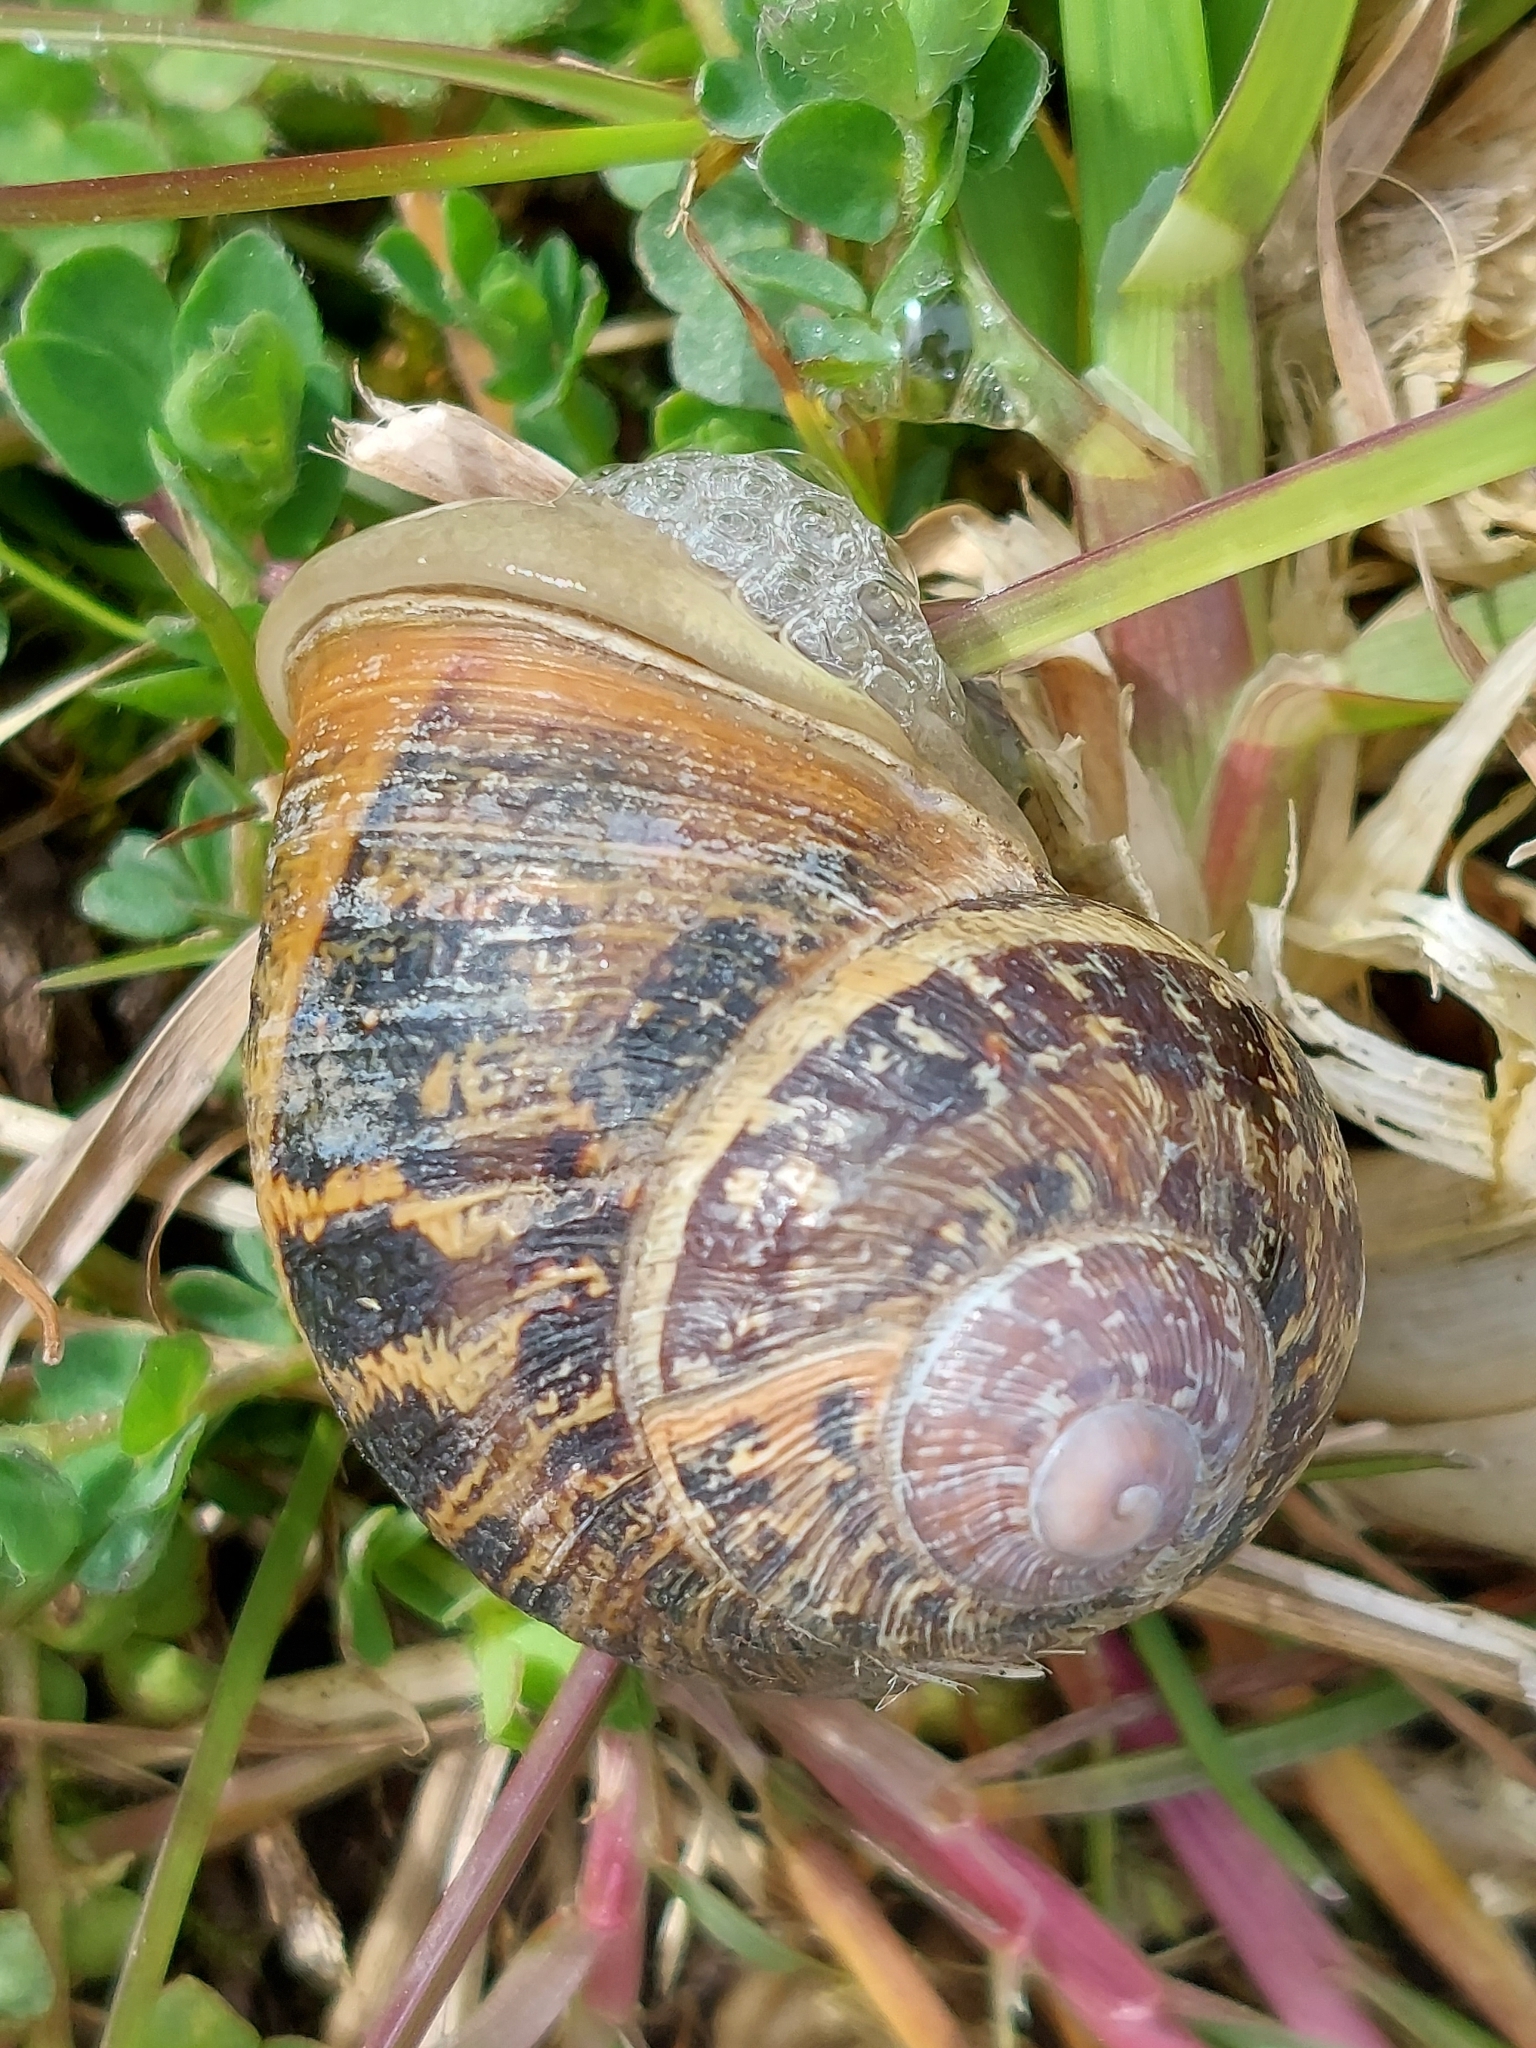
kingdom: Animalia
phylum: Mollusca
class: Gastropoda
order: Stylommatophora
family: Helicidae
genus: Cornu
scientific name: Cornu aspersum
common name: Brown garden snail
